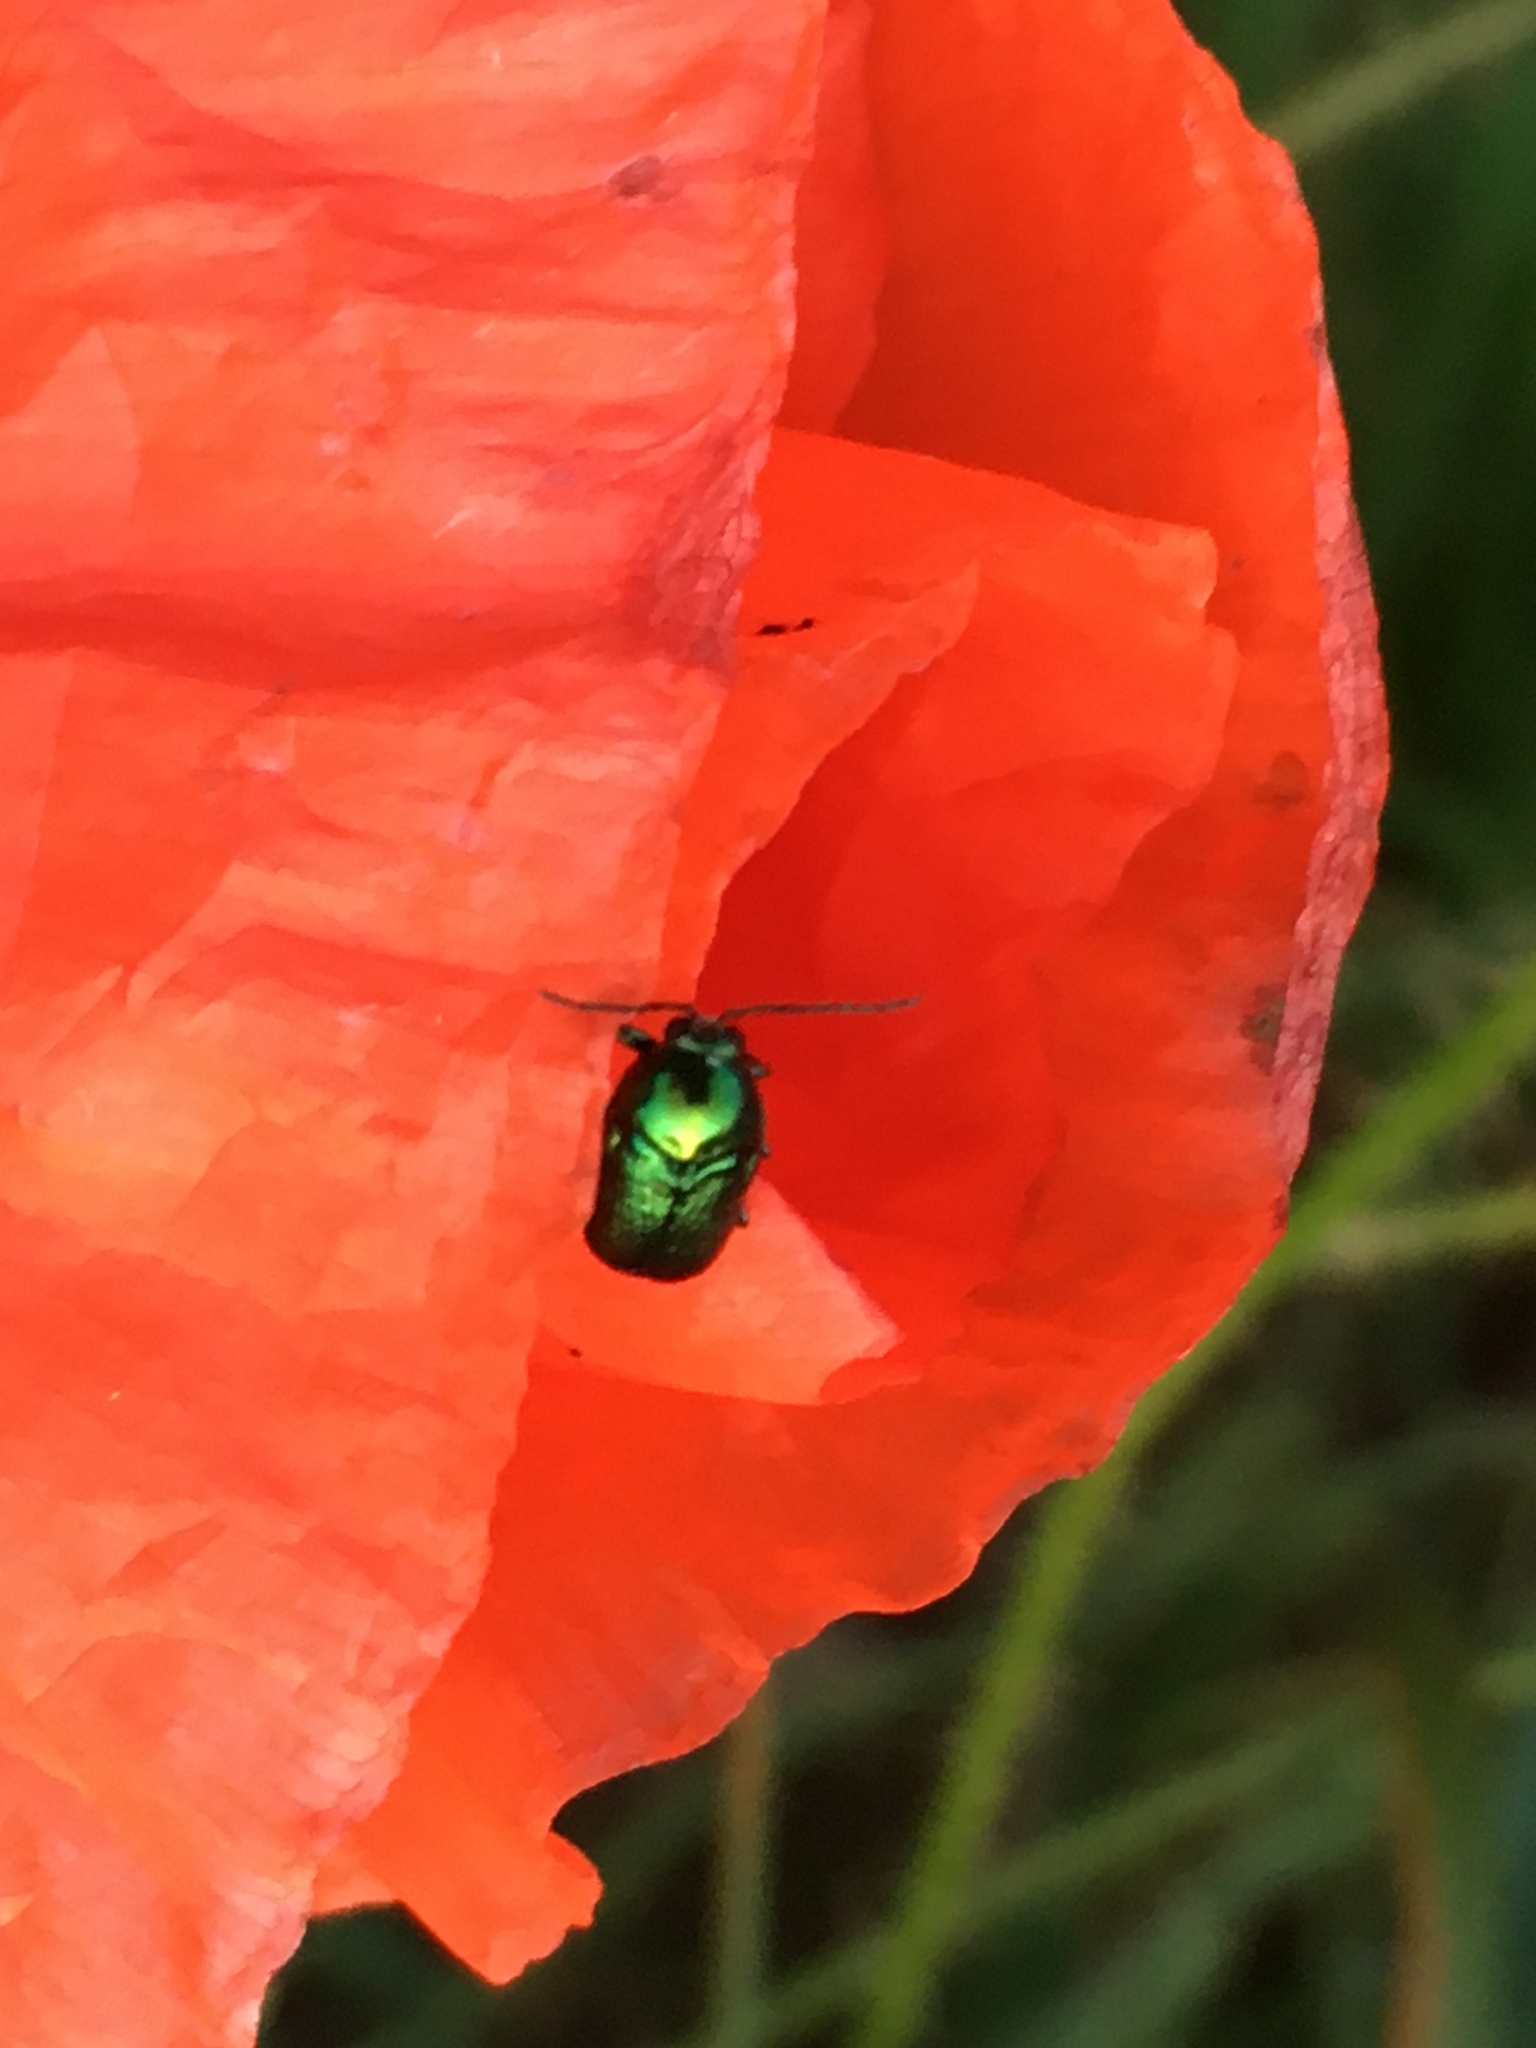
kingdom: Animalia
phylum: Arthropoda
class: Insecta
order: Coleoptera
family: Chrysomelidae
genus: Cryptocephalus
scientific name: Cryptocephalus
